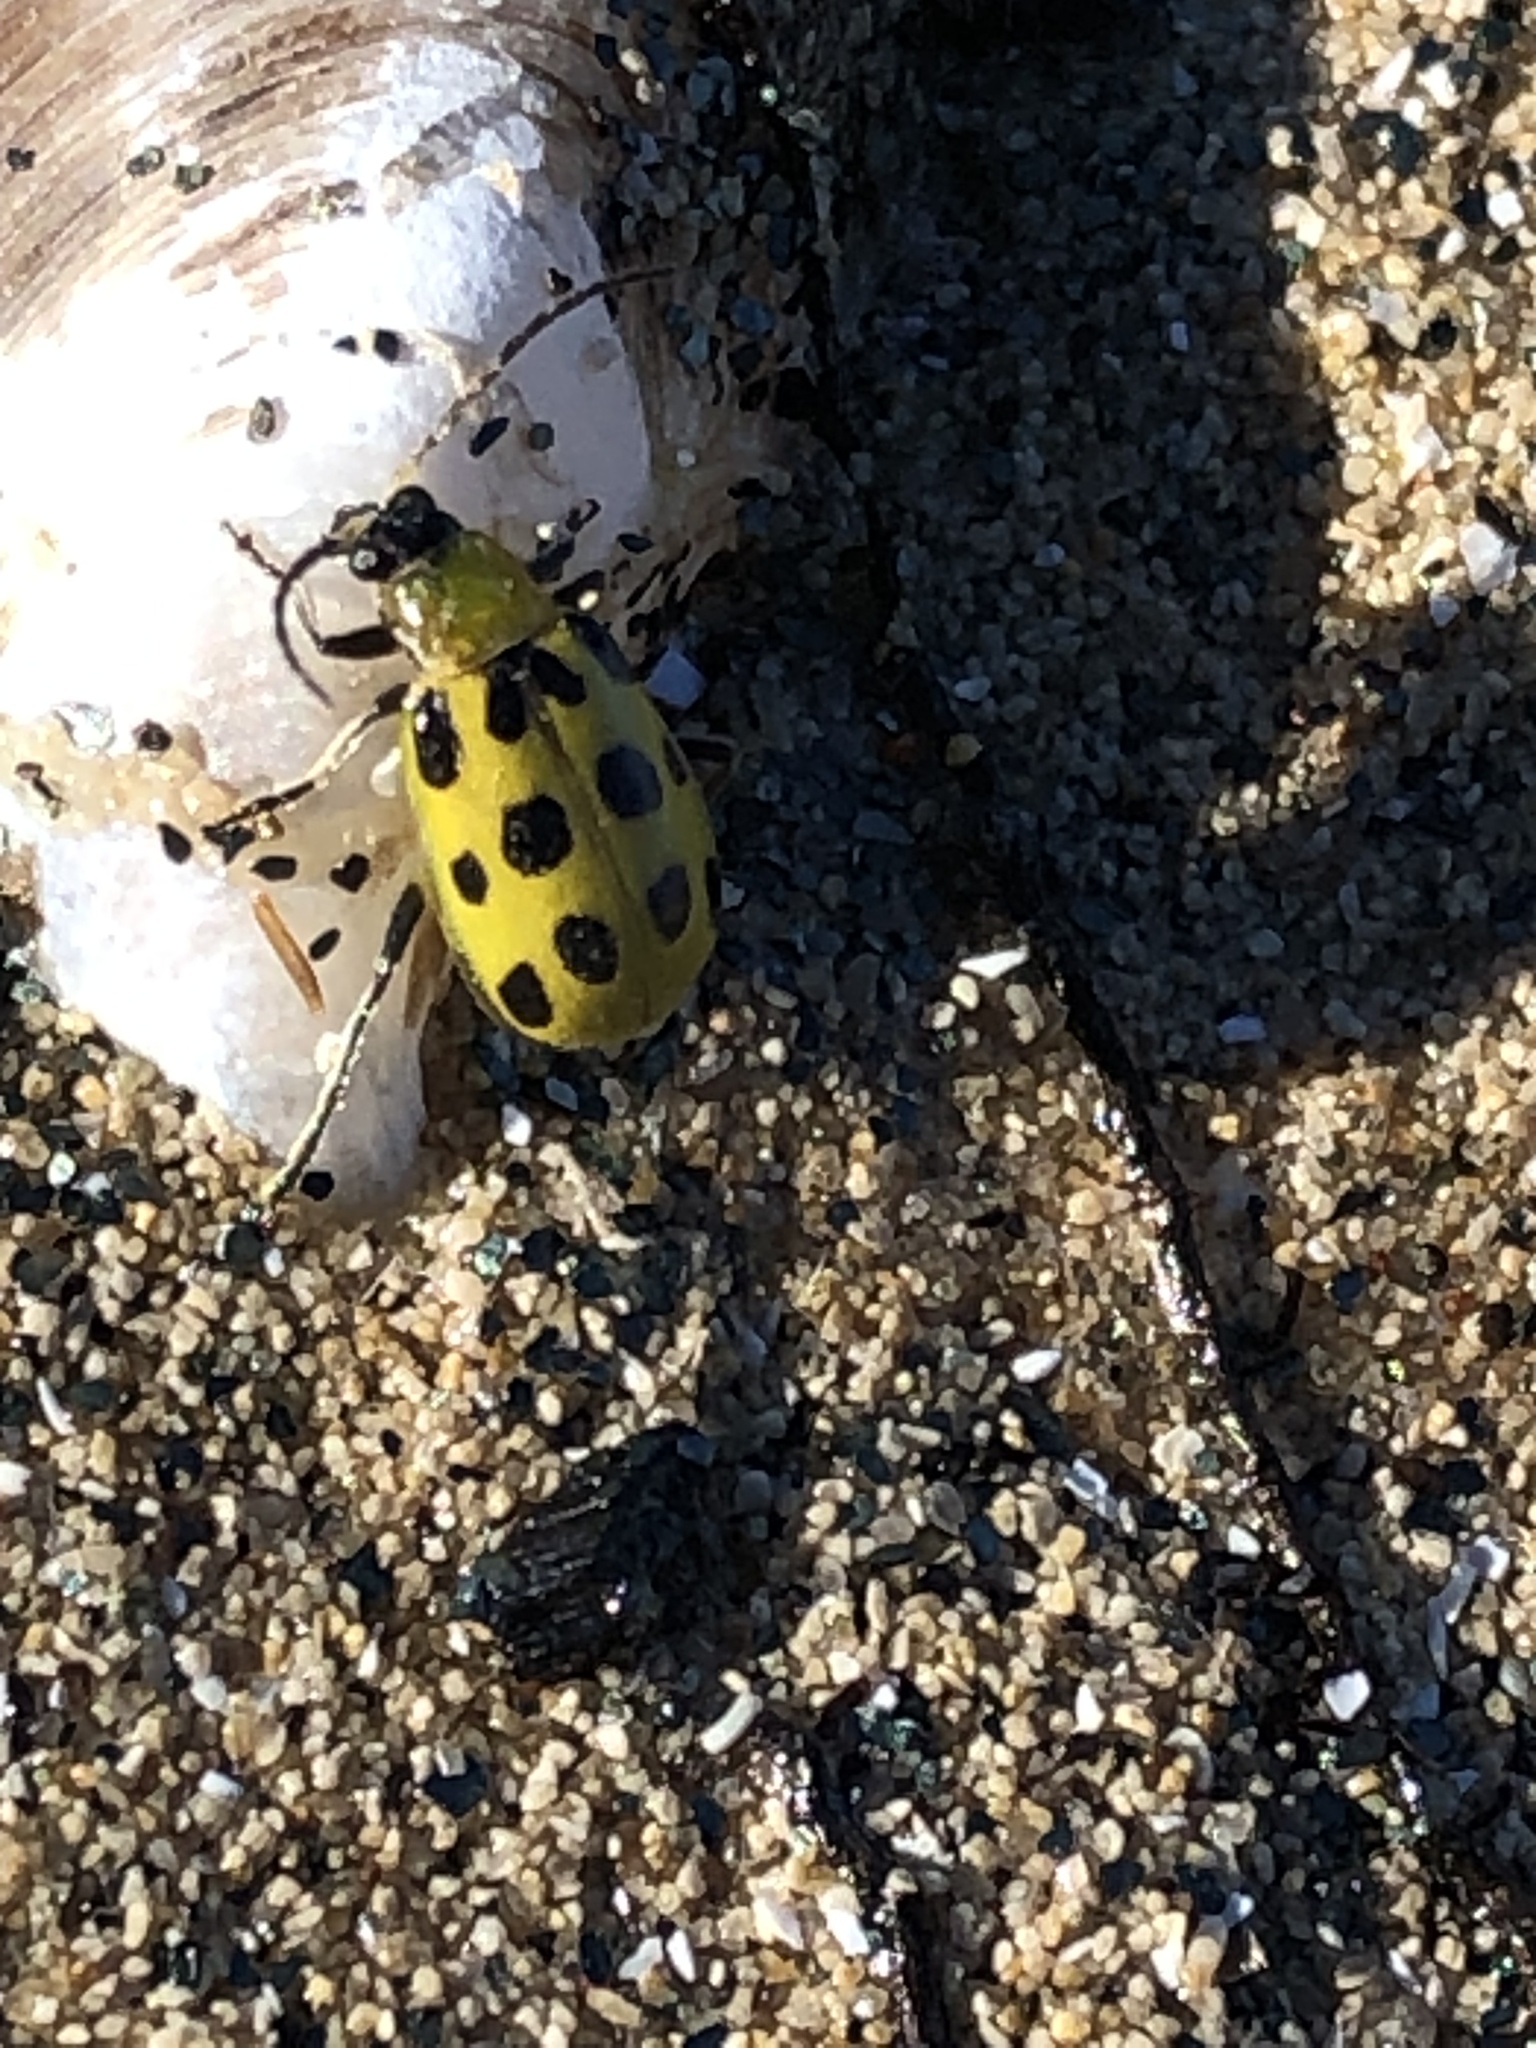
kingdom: Animalia
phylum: Arthropoda
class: Insecta
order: Coleoptera
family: Chrysomelidae
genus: Diabrotica
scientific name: Diabrotica undecimpunctata
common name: Spotted cucumber beetle
